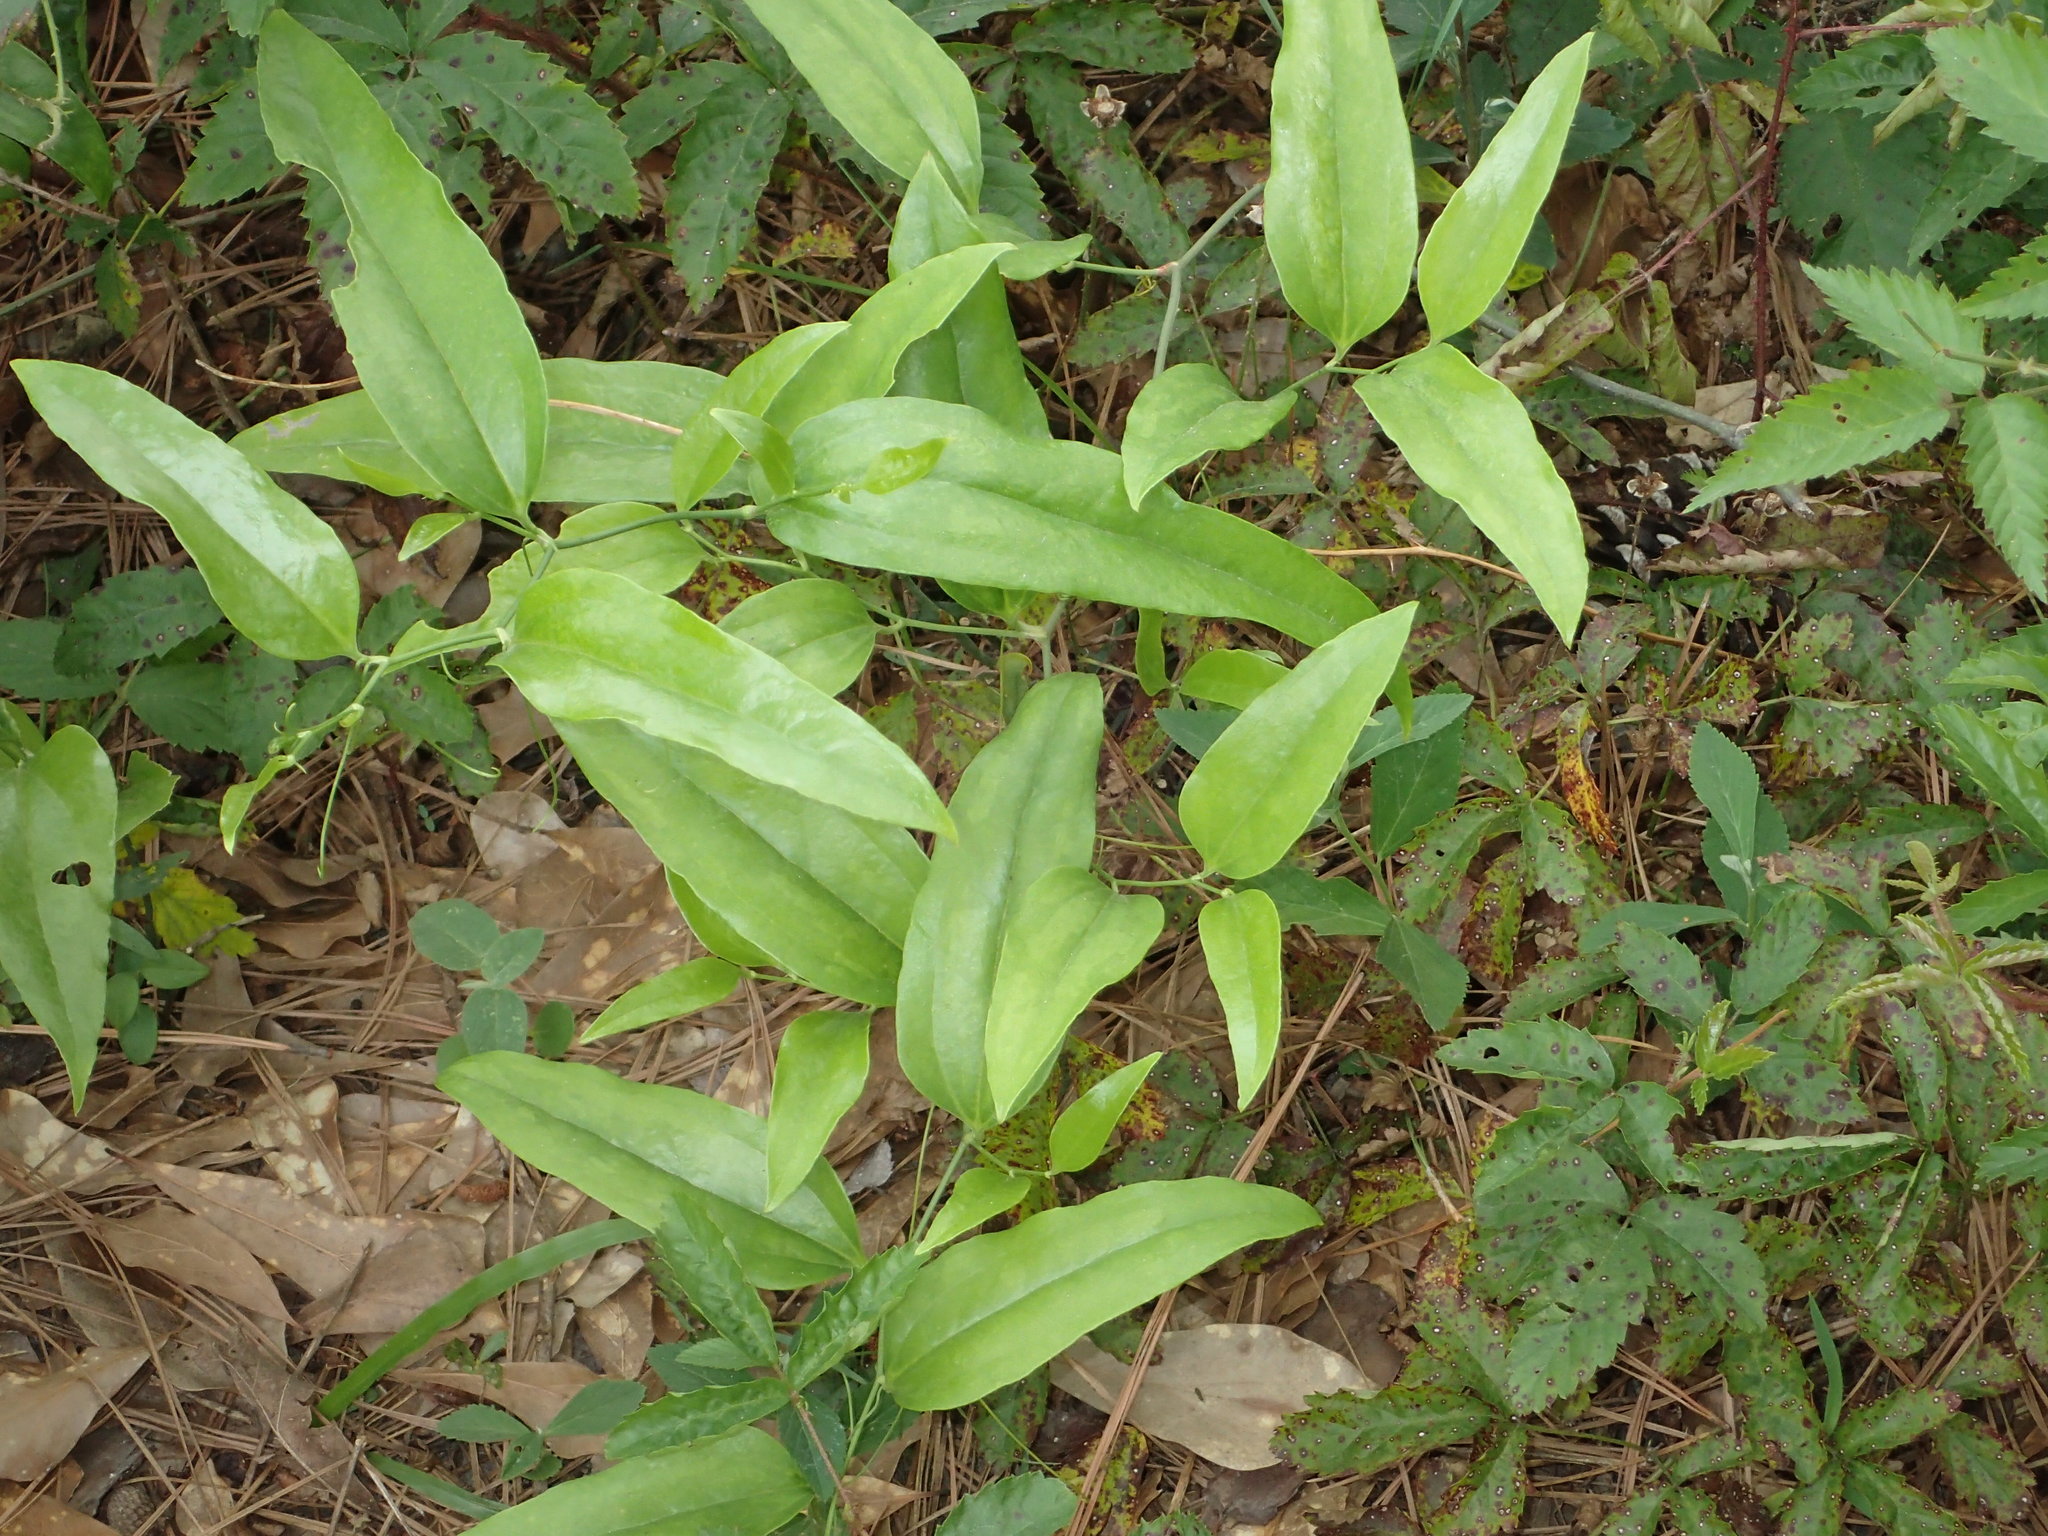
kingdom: Plantae
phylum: Tracheophyta
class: Liliopsida
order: Liliales
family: Smilacaceae
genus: Smilax
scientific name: Smilax maritima
